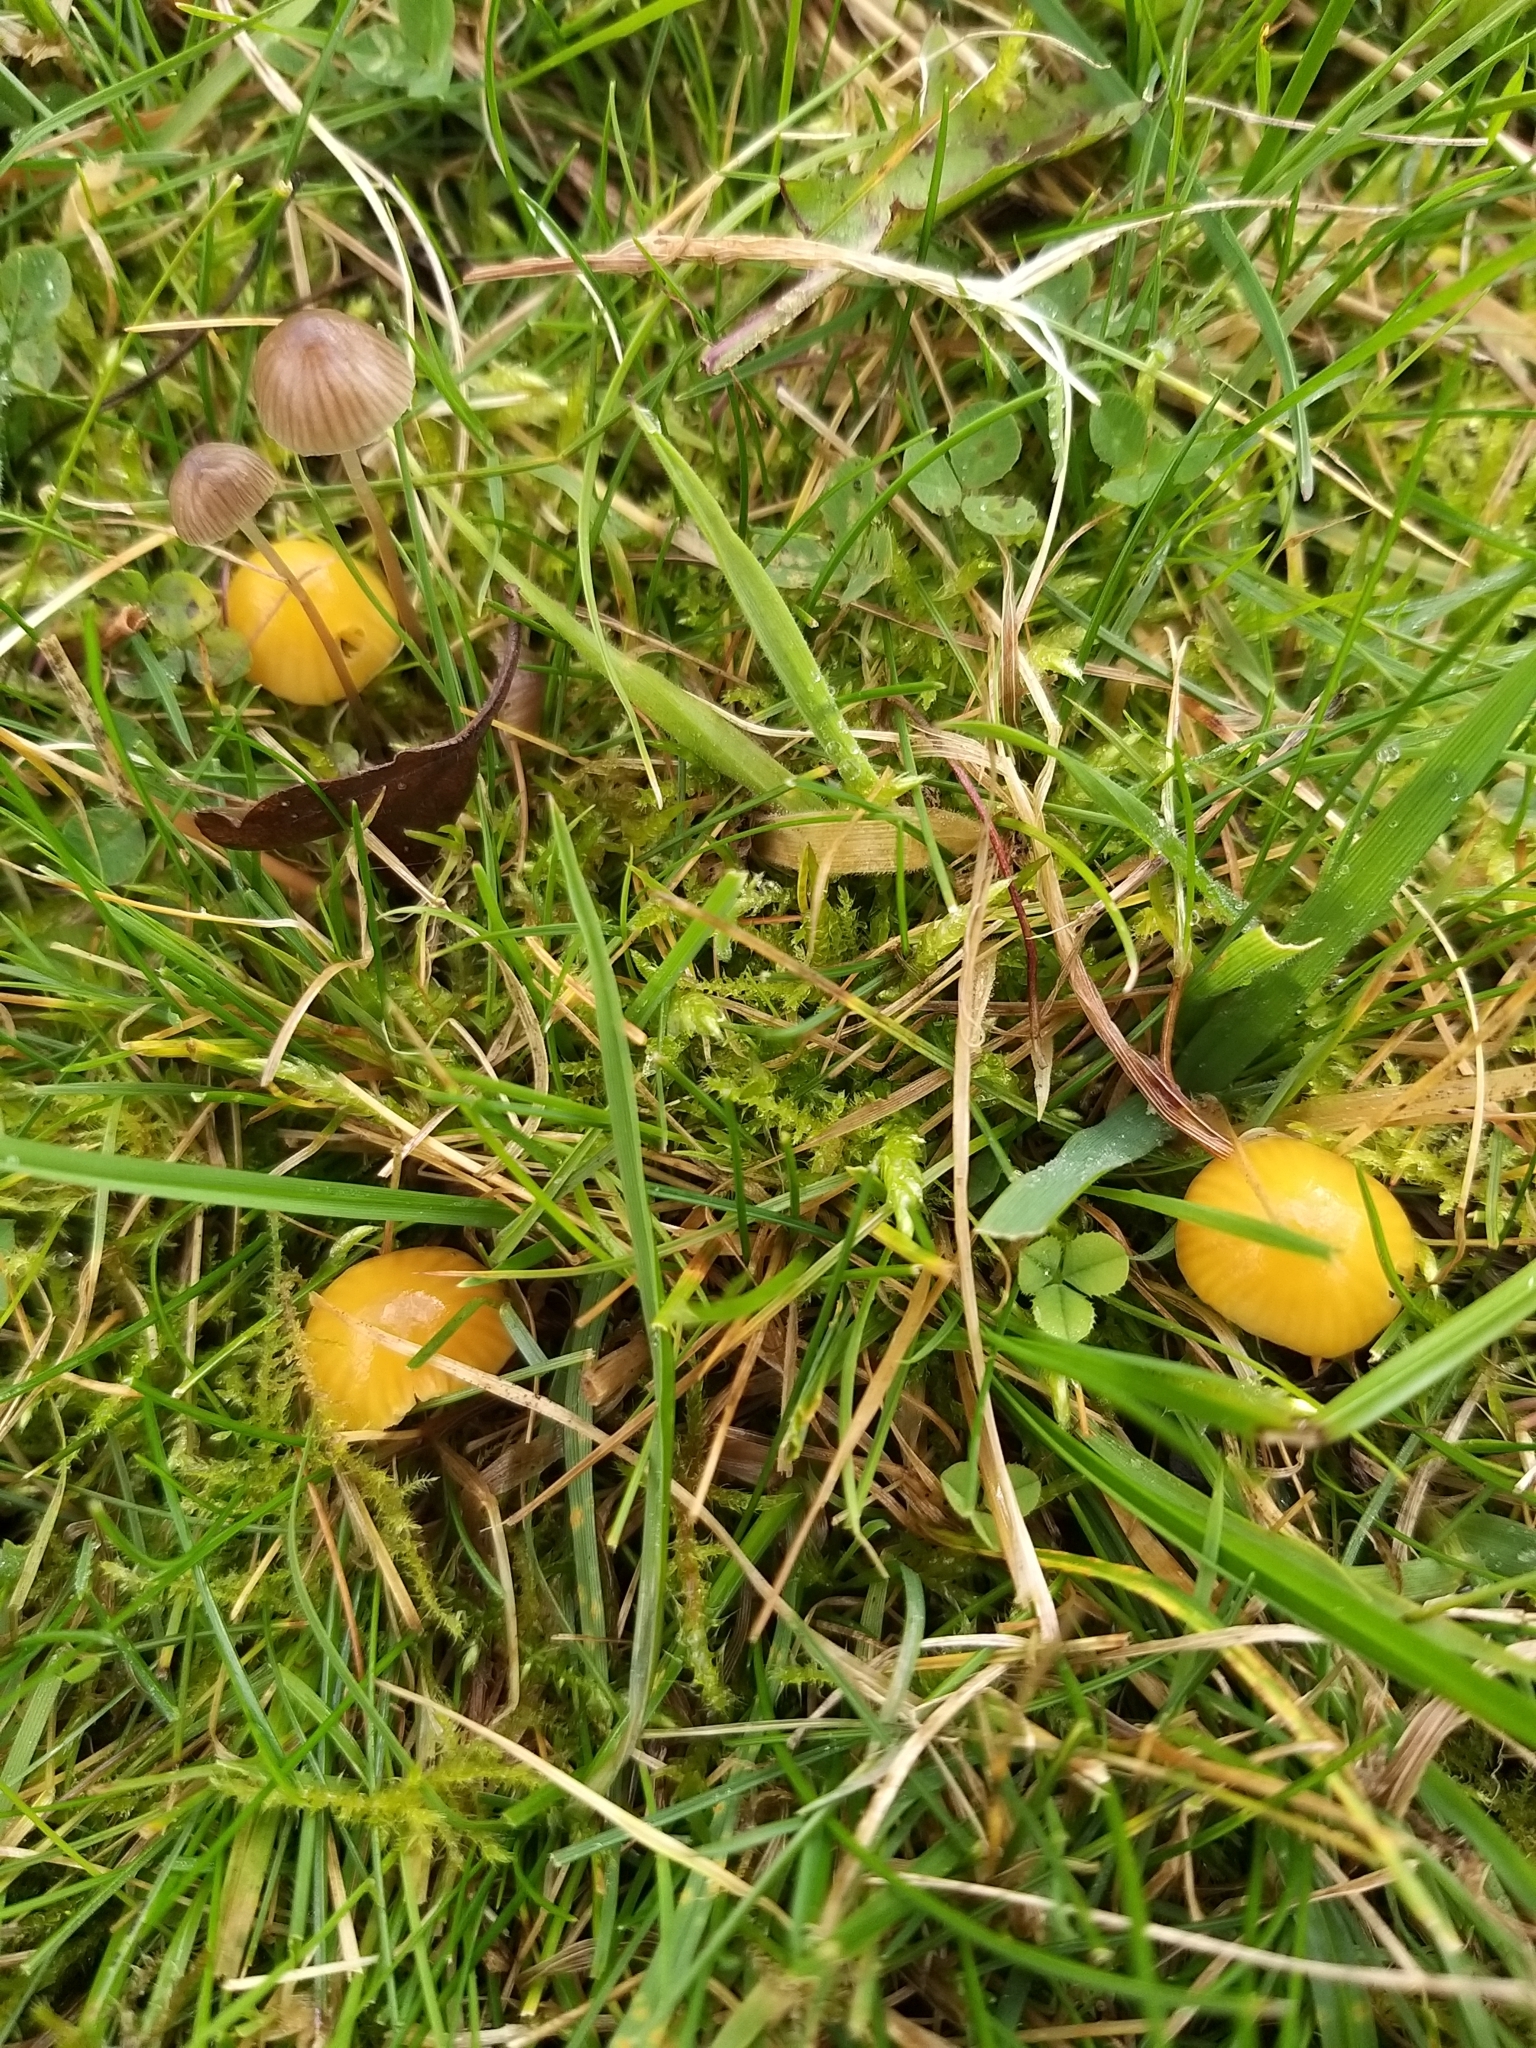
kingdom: Fungi
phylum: Basidiomycota
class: Agaricomycetes
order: Agaricales
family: Hygrophoraceae
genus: Gliophorus
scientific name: Gliophorus psittacinus
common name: Parrot wax-cap
